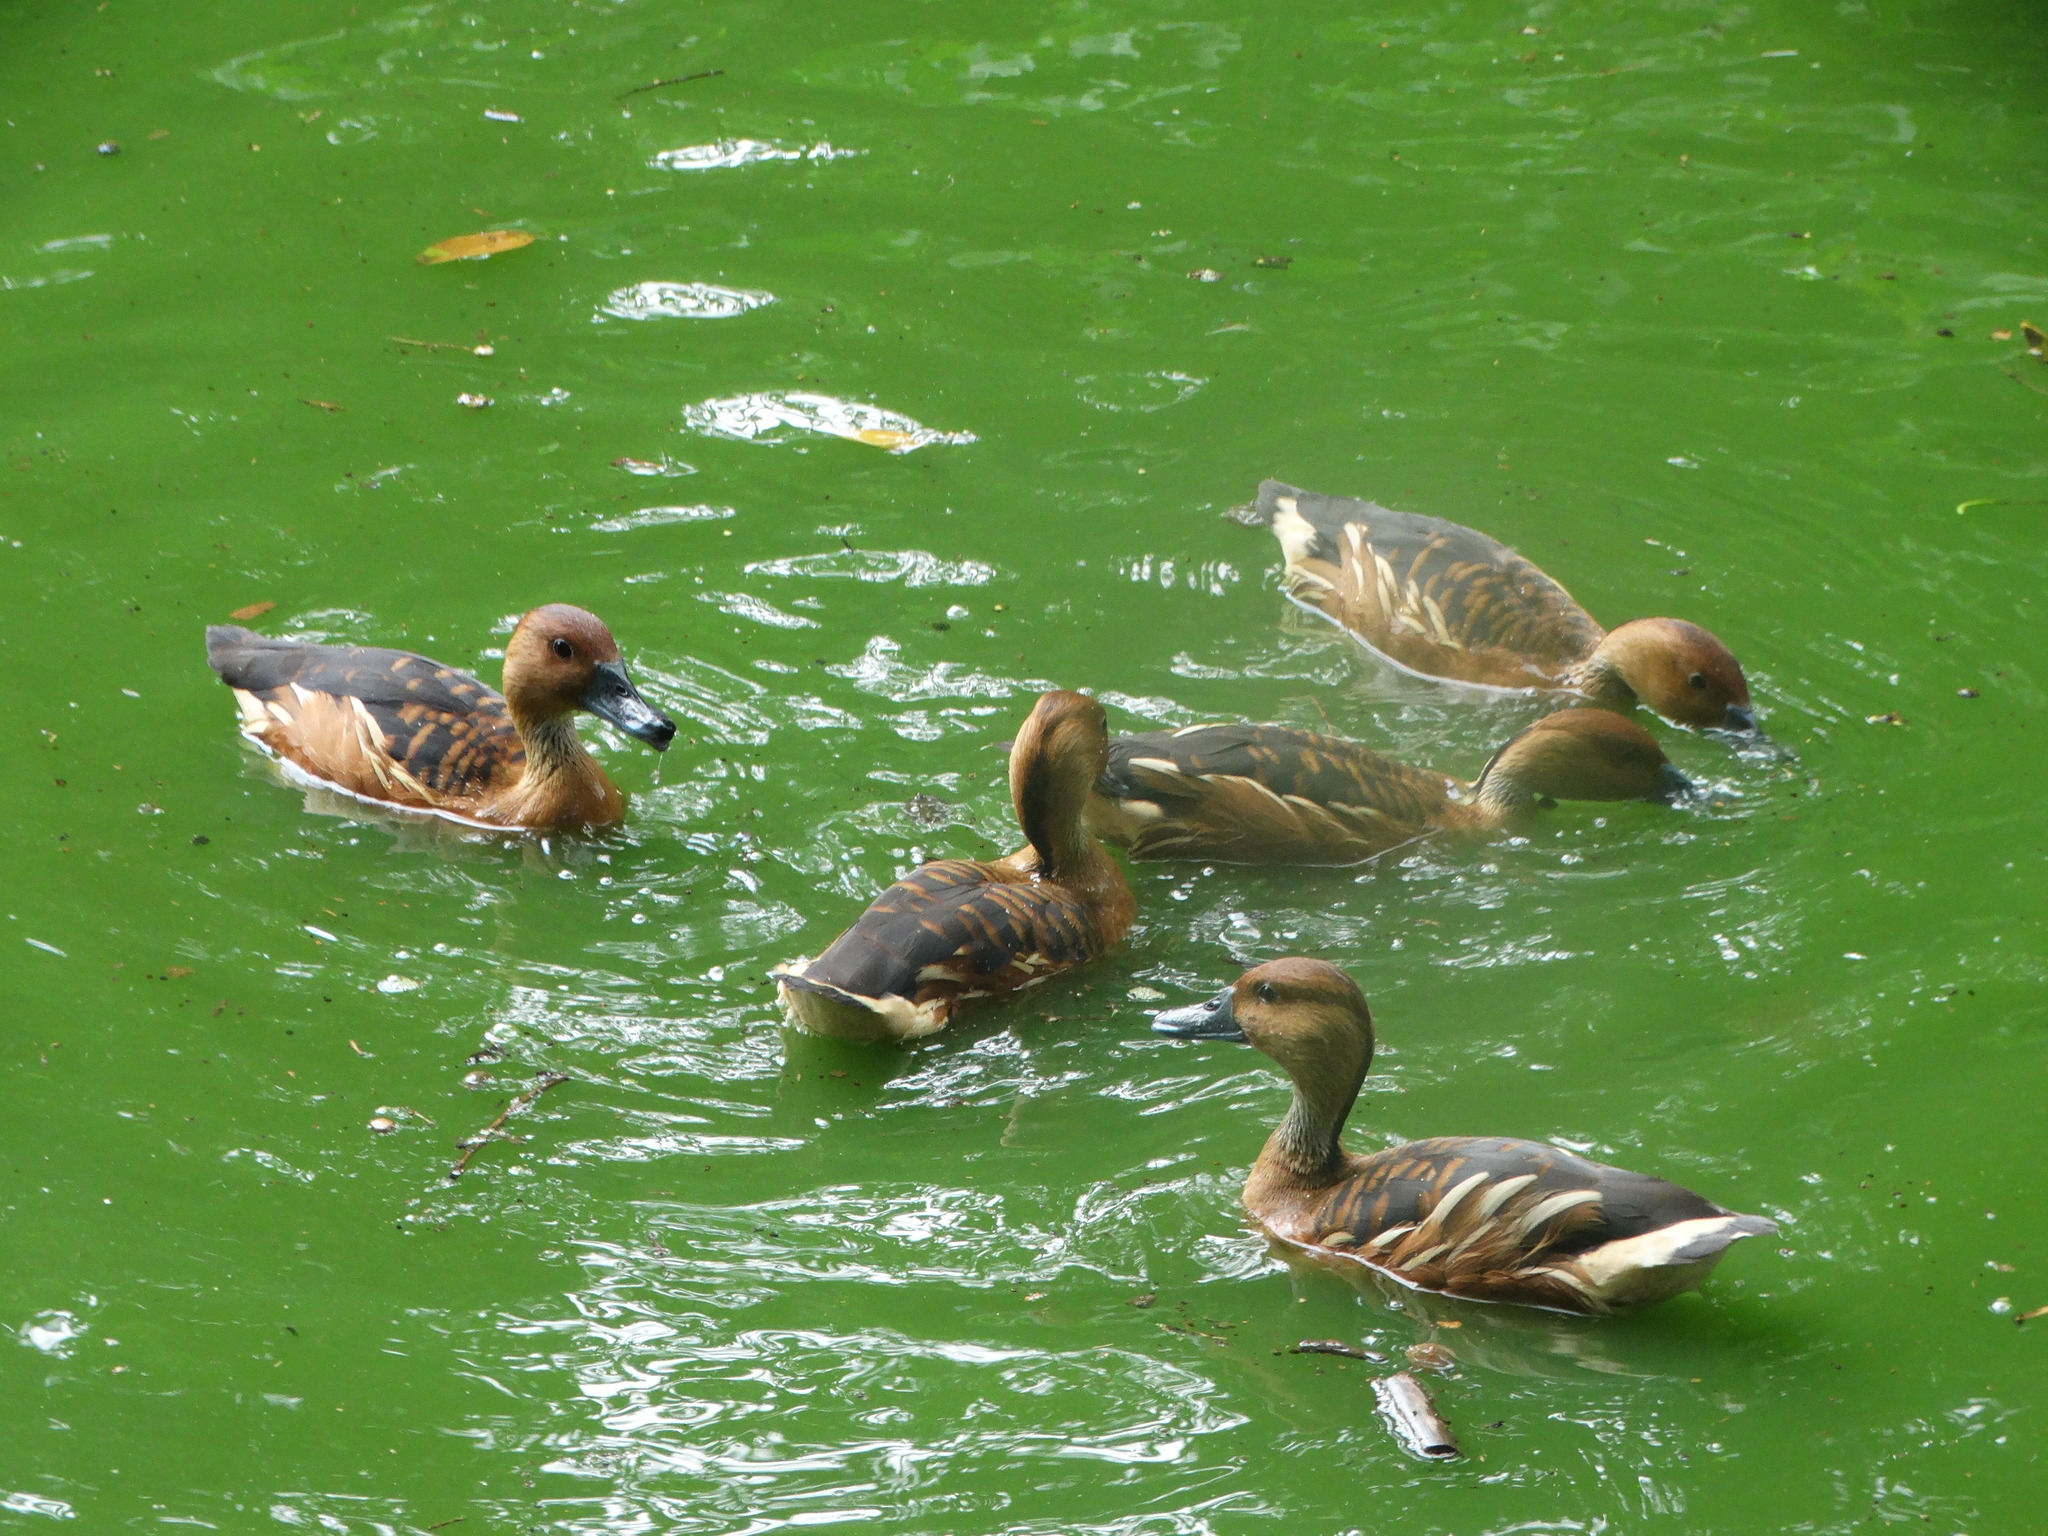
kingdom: Animalia
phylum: Chordata
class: Aves
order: Anseriformes
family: Anatidae
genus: Dendrocygna
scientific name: Dendrocygna bicolor
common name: Fulvous whistling duck
